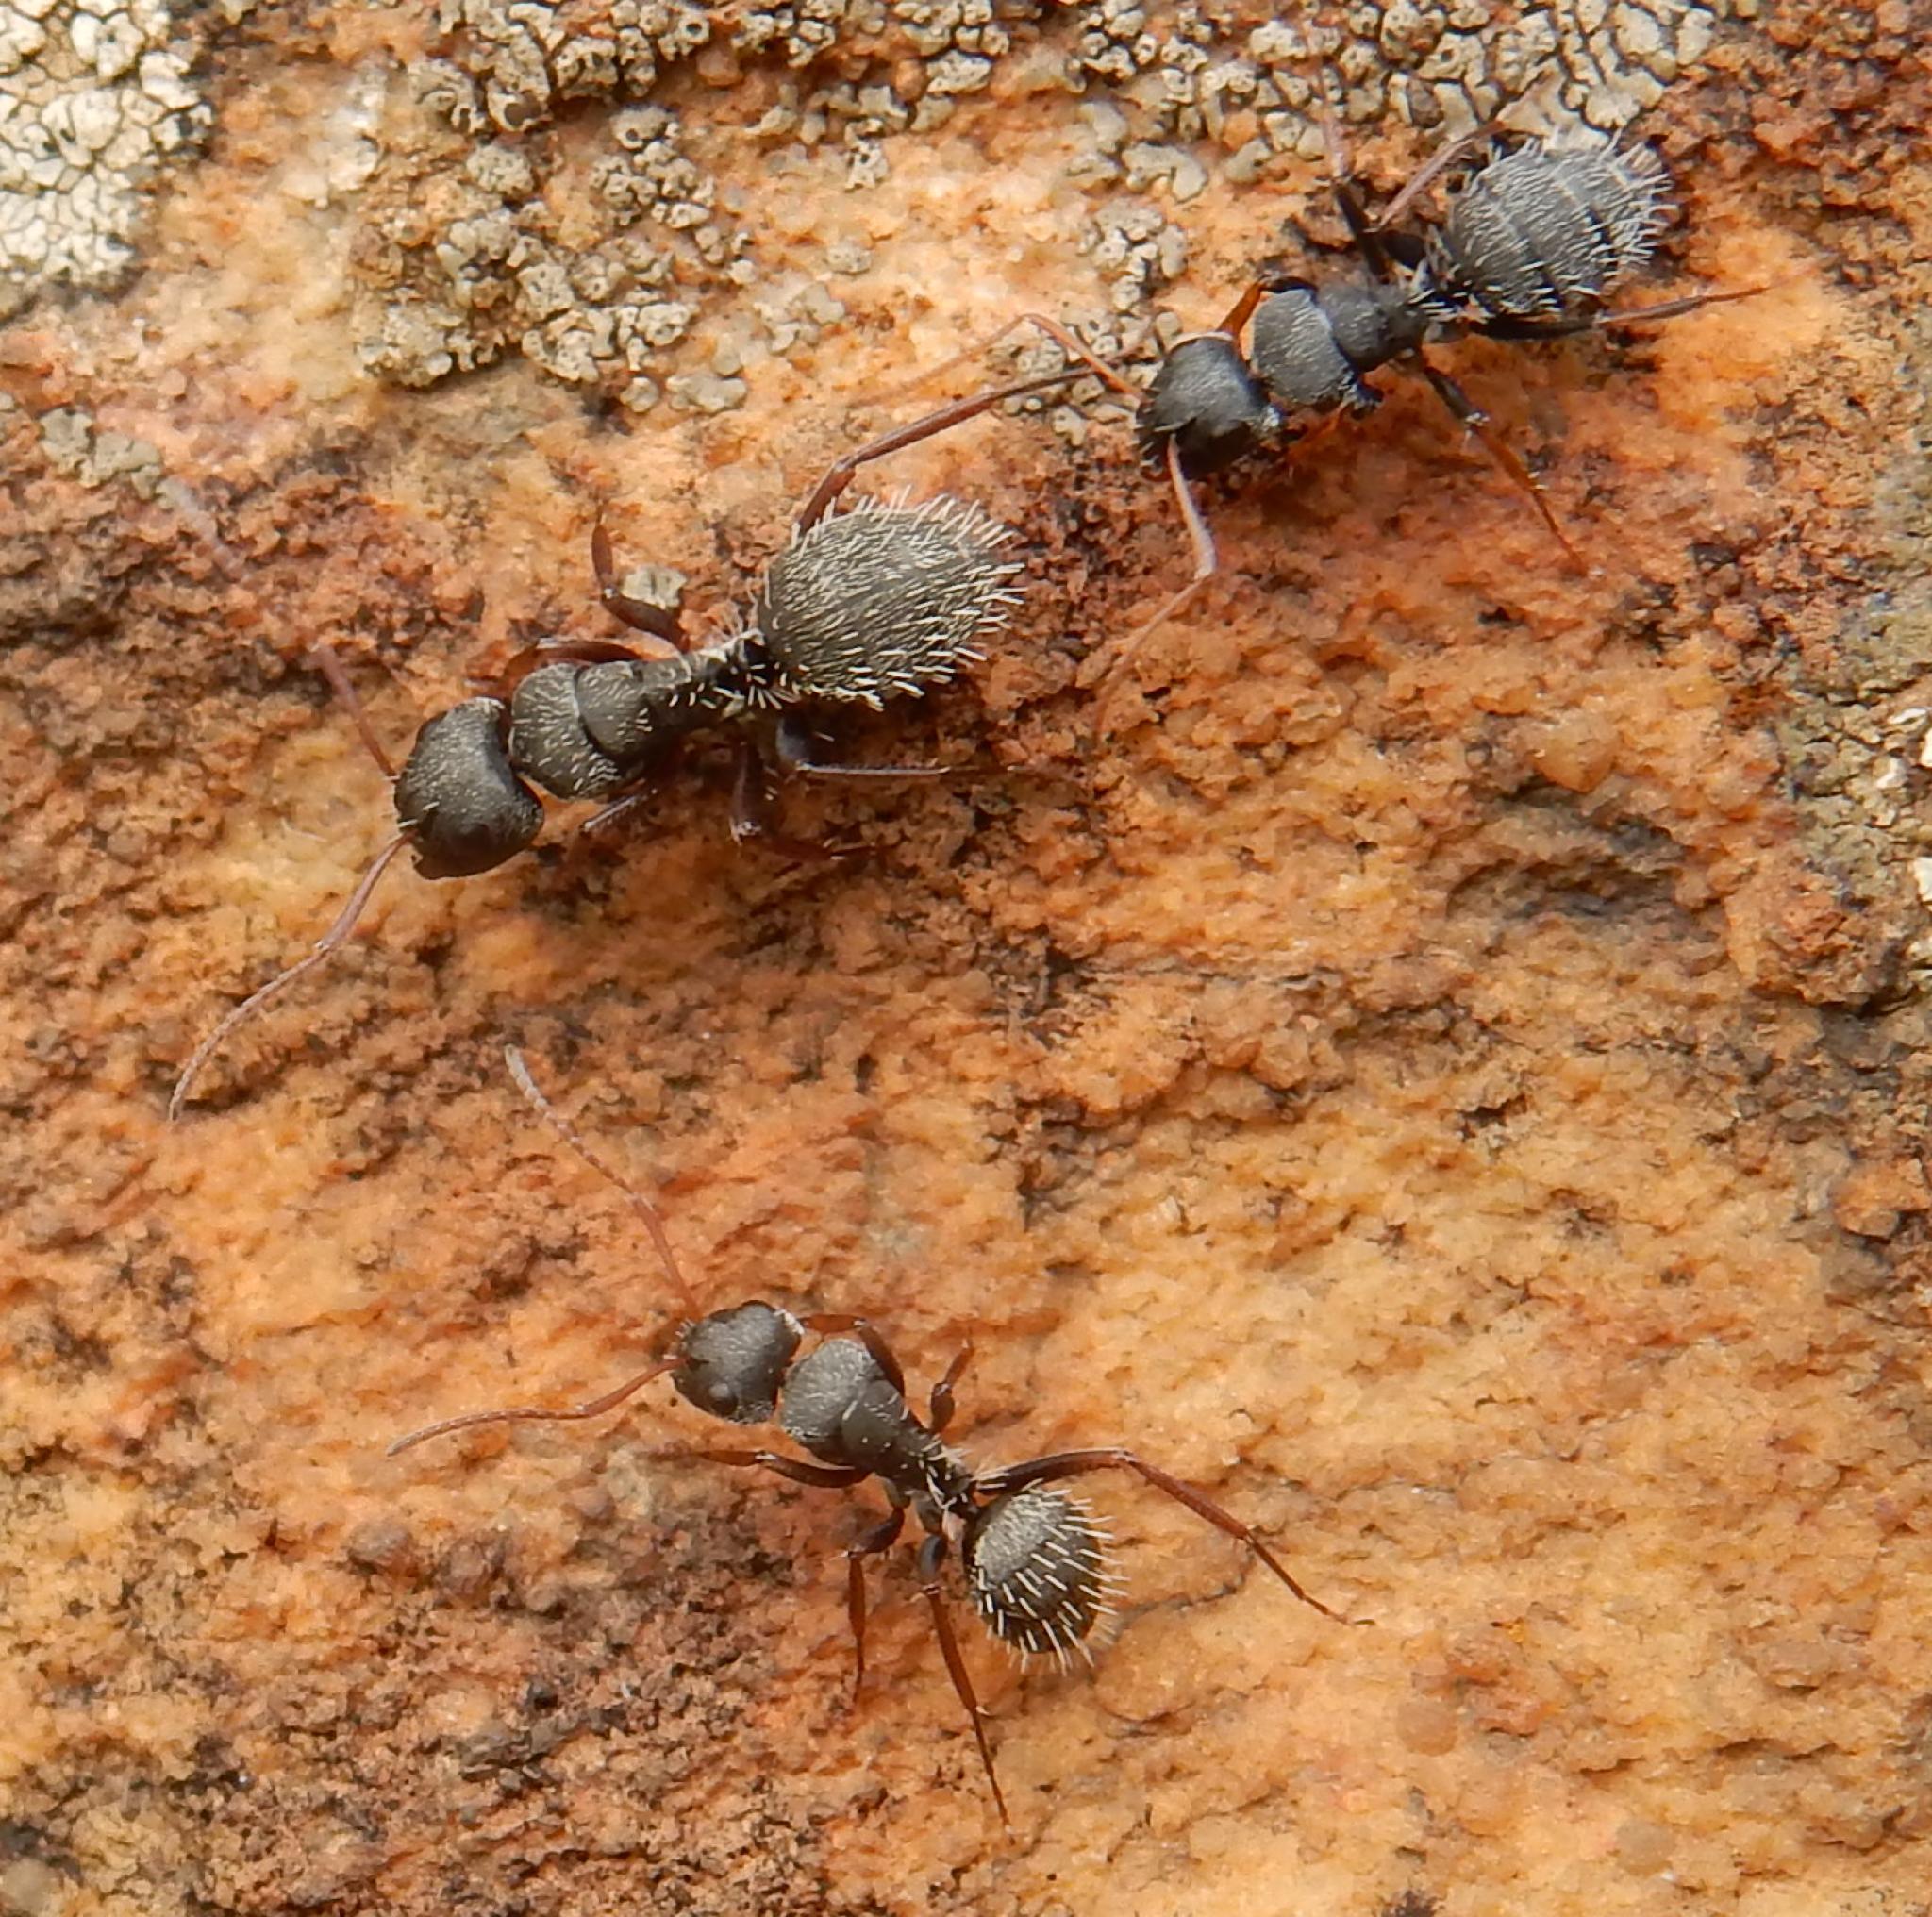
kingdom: Animalia
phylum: Arthropoda
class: Insecta
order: Hymenoptera
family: Formicidae
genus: Camponotus
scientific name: Camponotus auropubens
